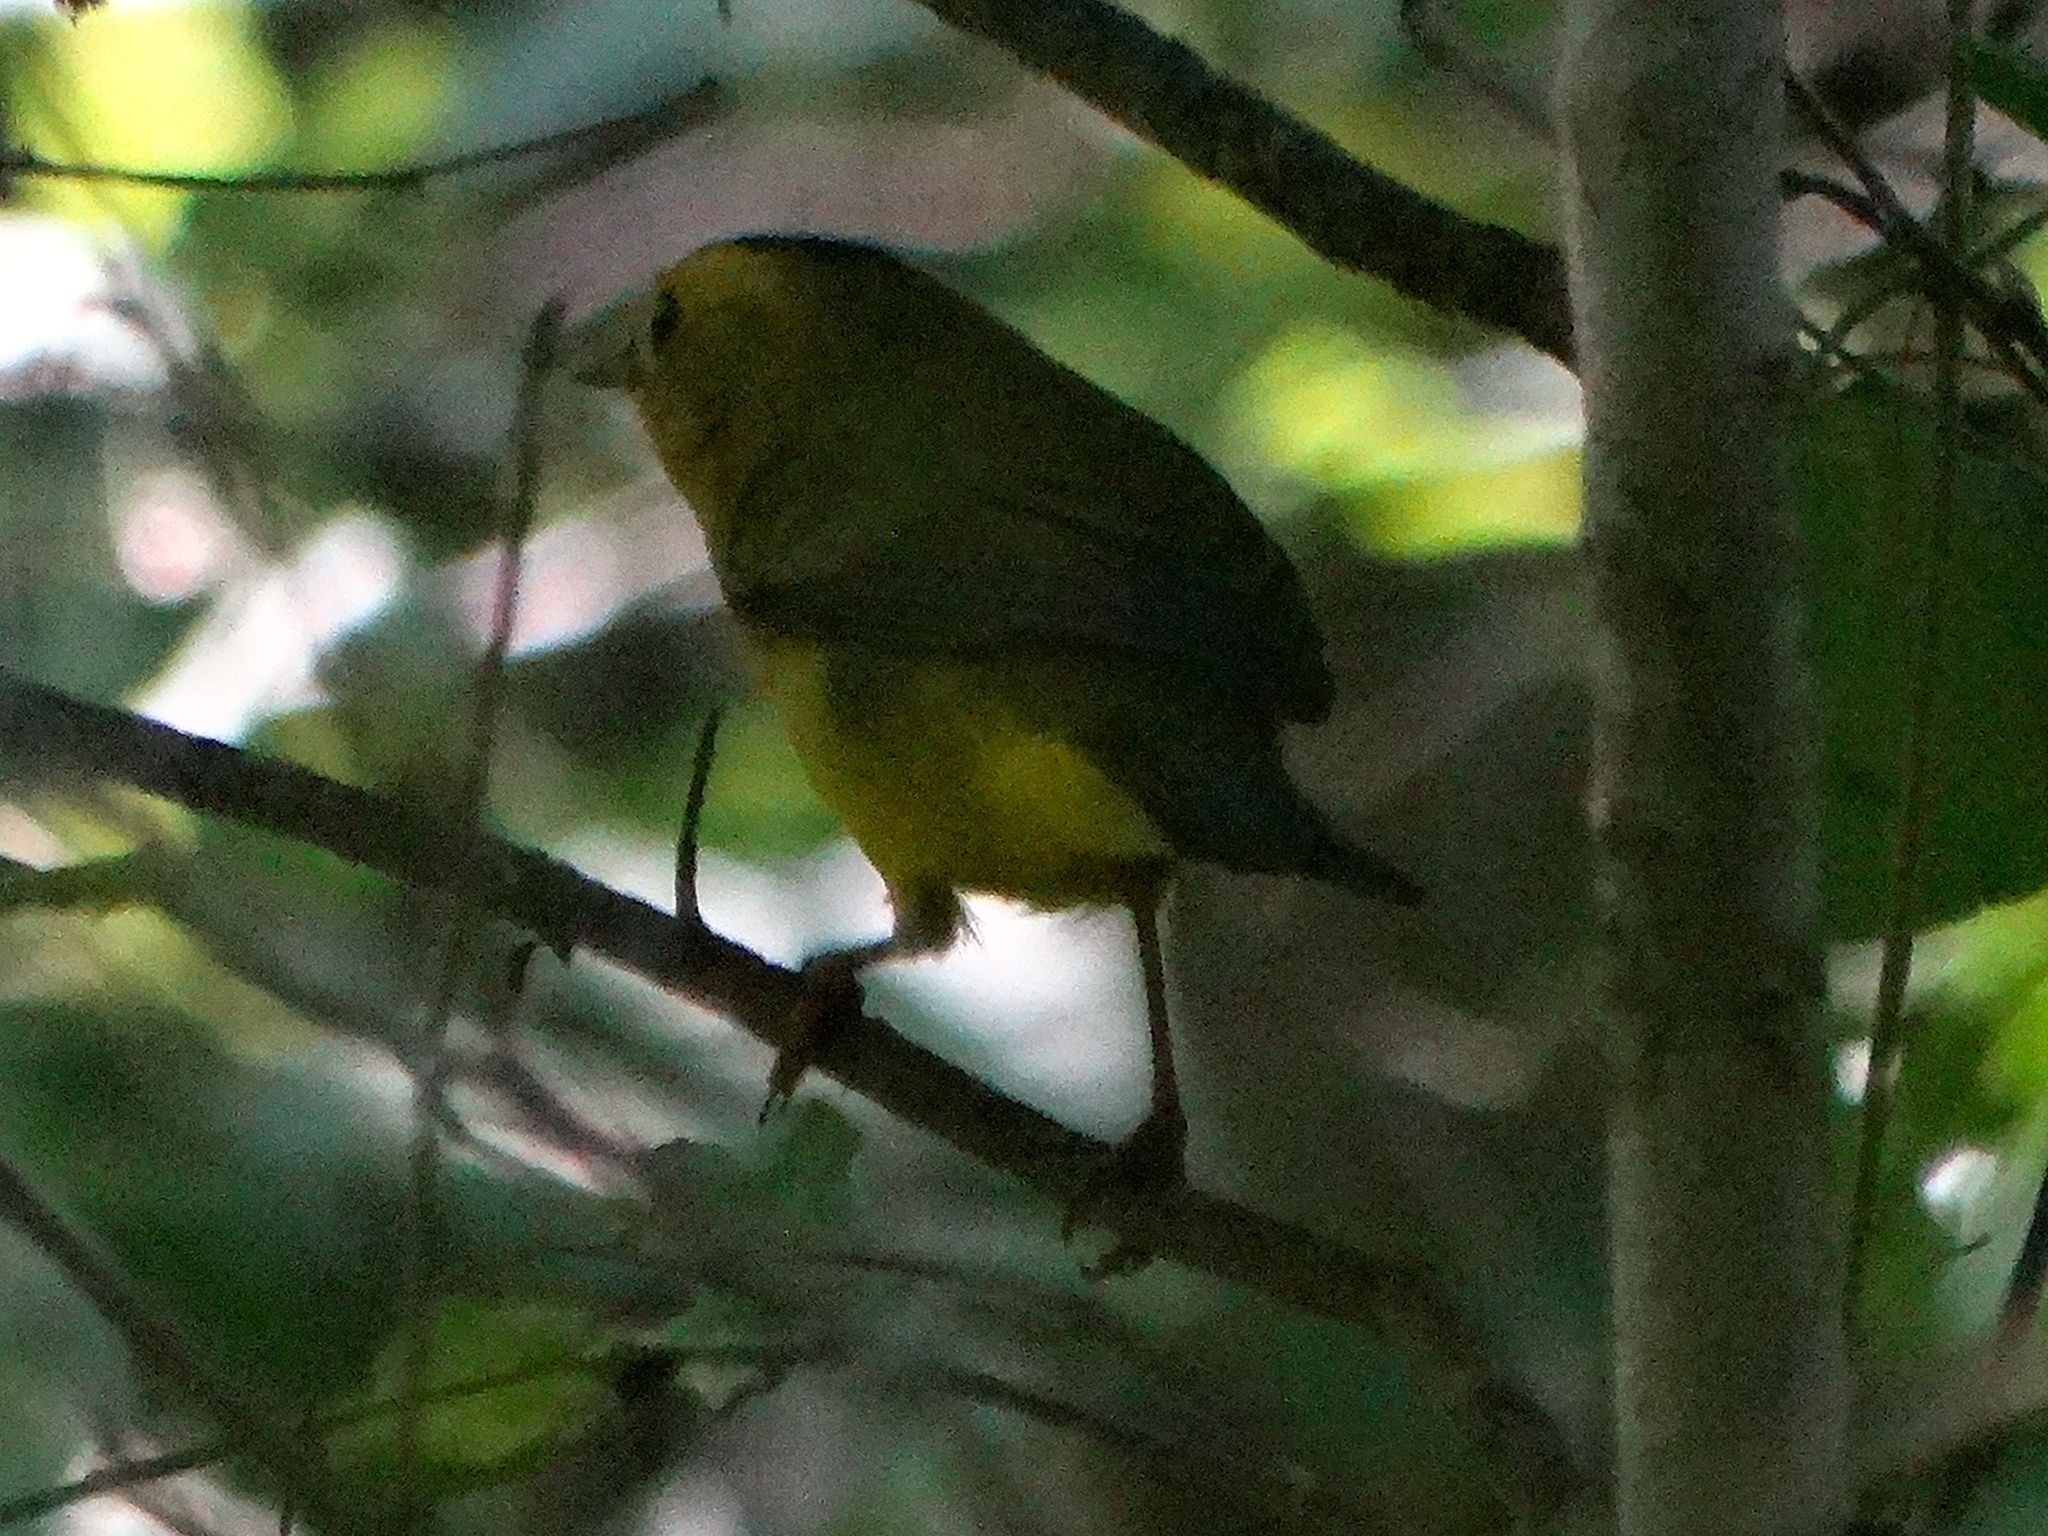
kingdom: Animalia
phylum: Chordata
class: Aves
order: Passeriformes
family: Parulidae
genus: Cardellina
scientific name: Cardellina pusilla
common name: Wilson's warbler
